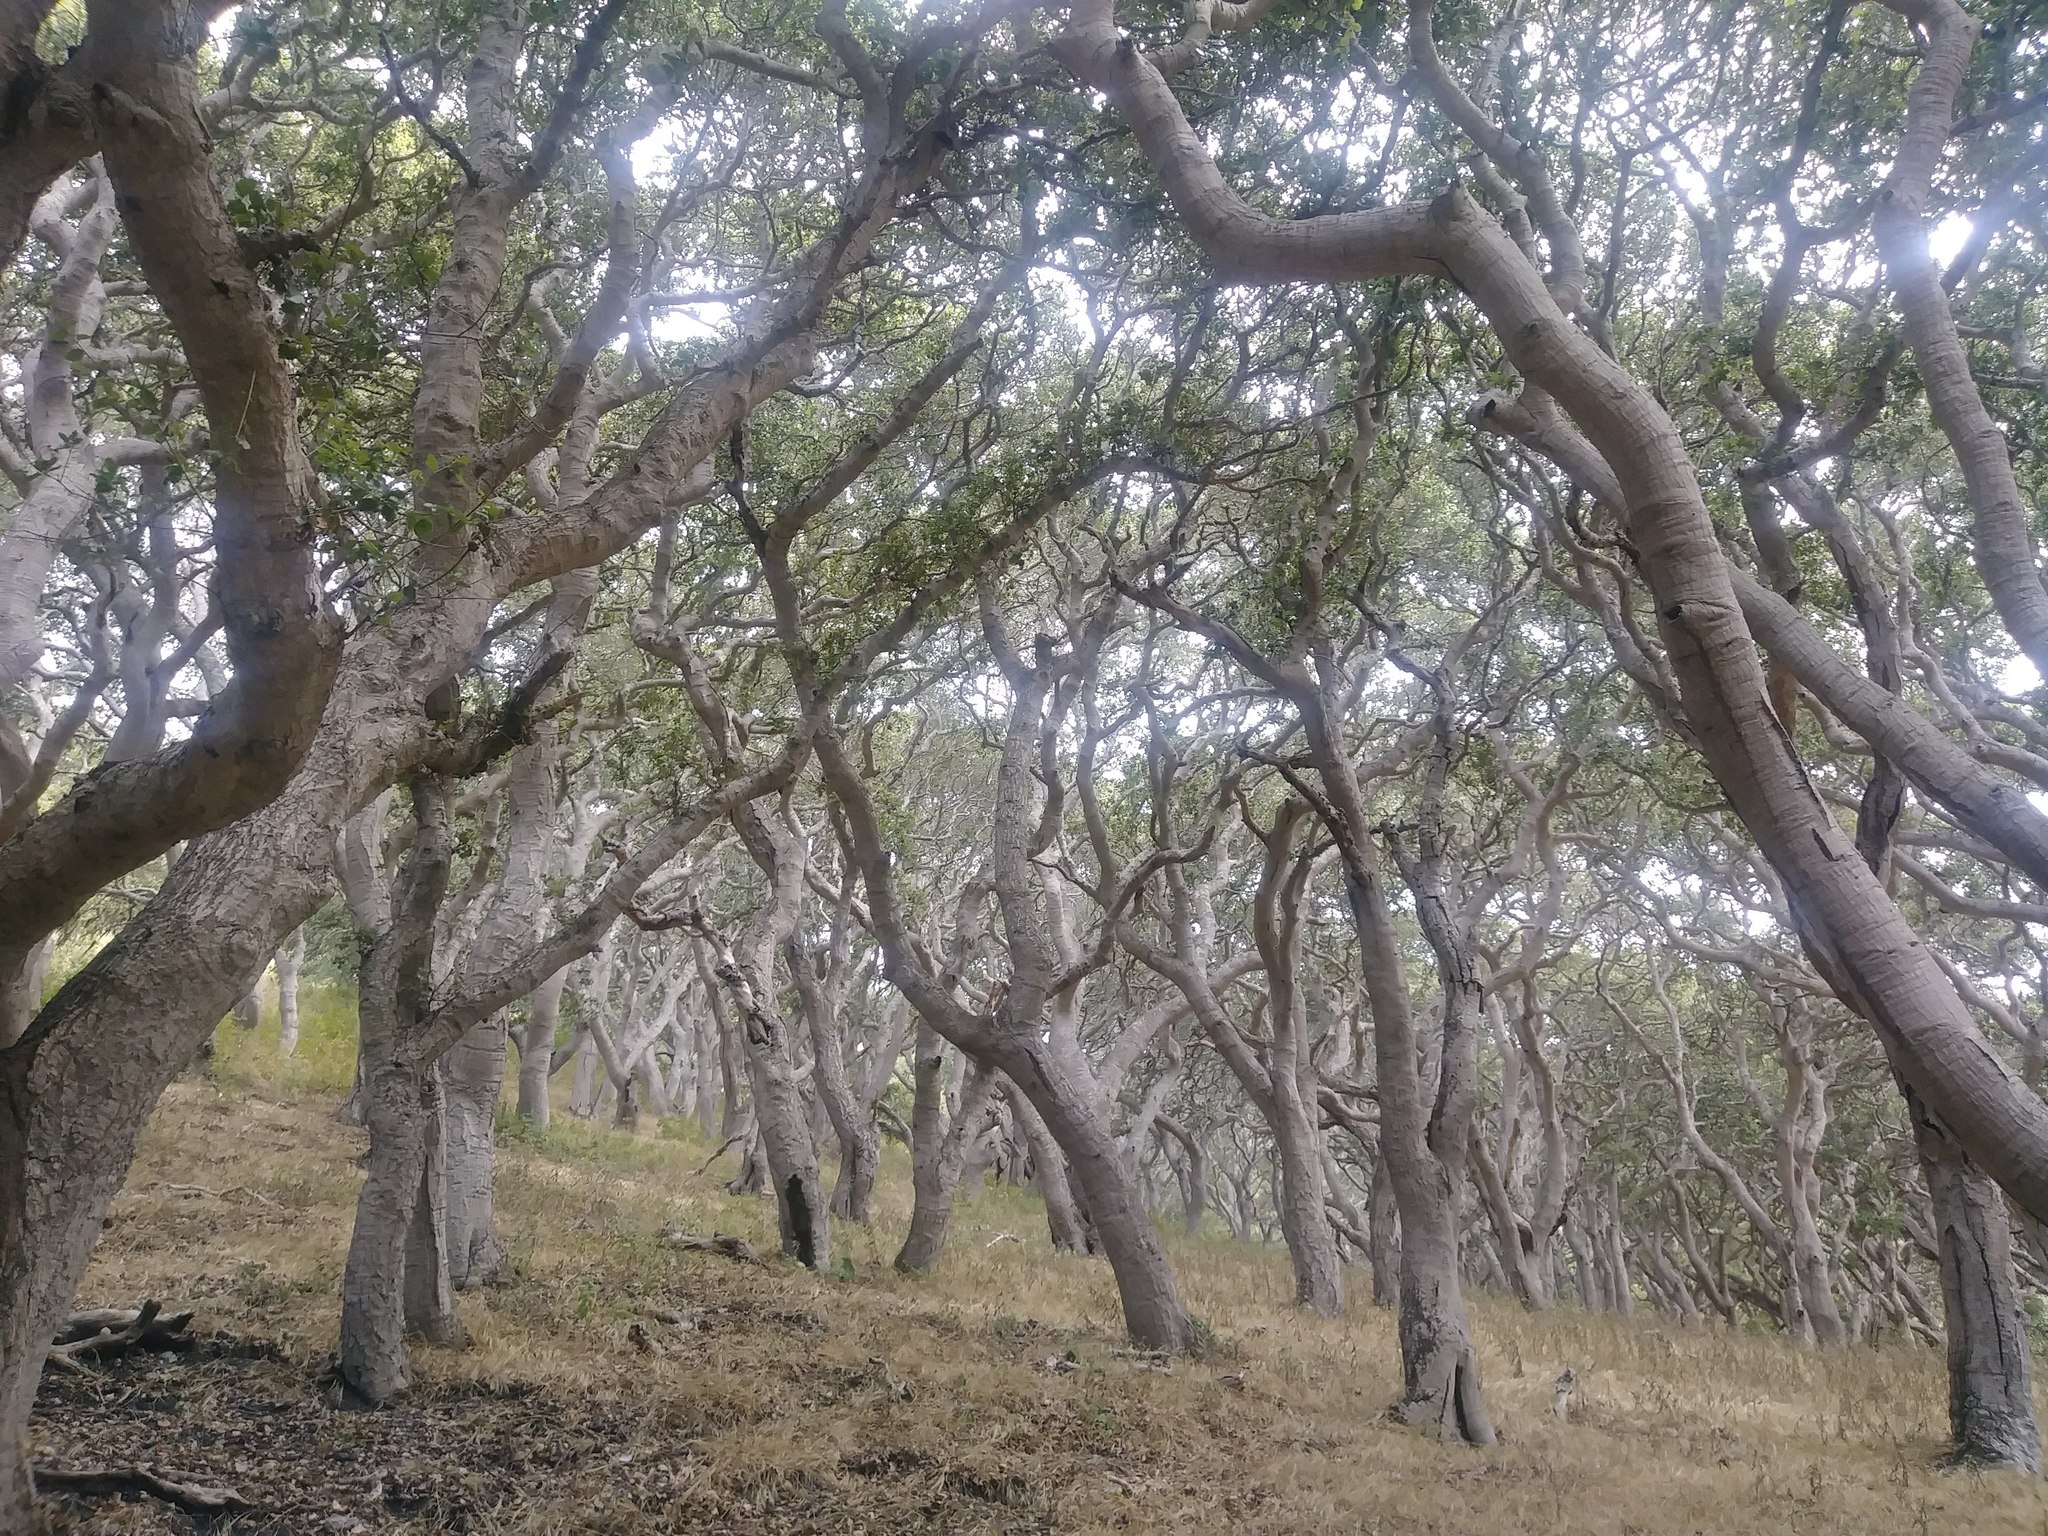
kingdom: Plantae
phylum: Tracheophyta
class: Magnoliopsida
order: Fagales
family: Fagaceae
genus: Quercus
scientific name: Quercus agrifolia
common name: California live oak
